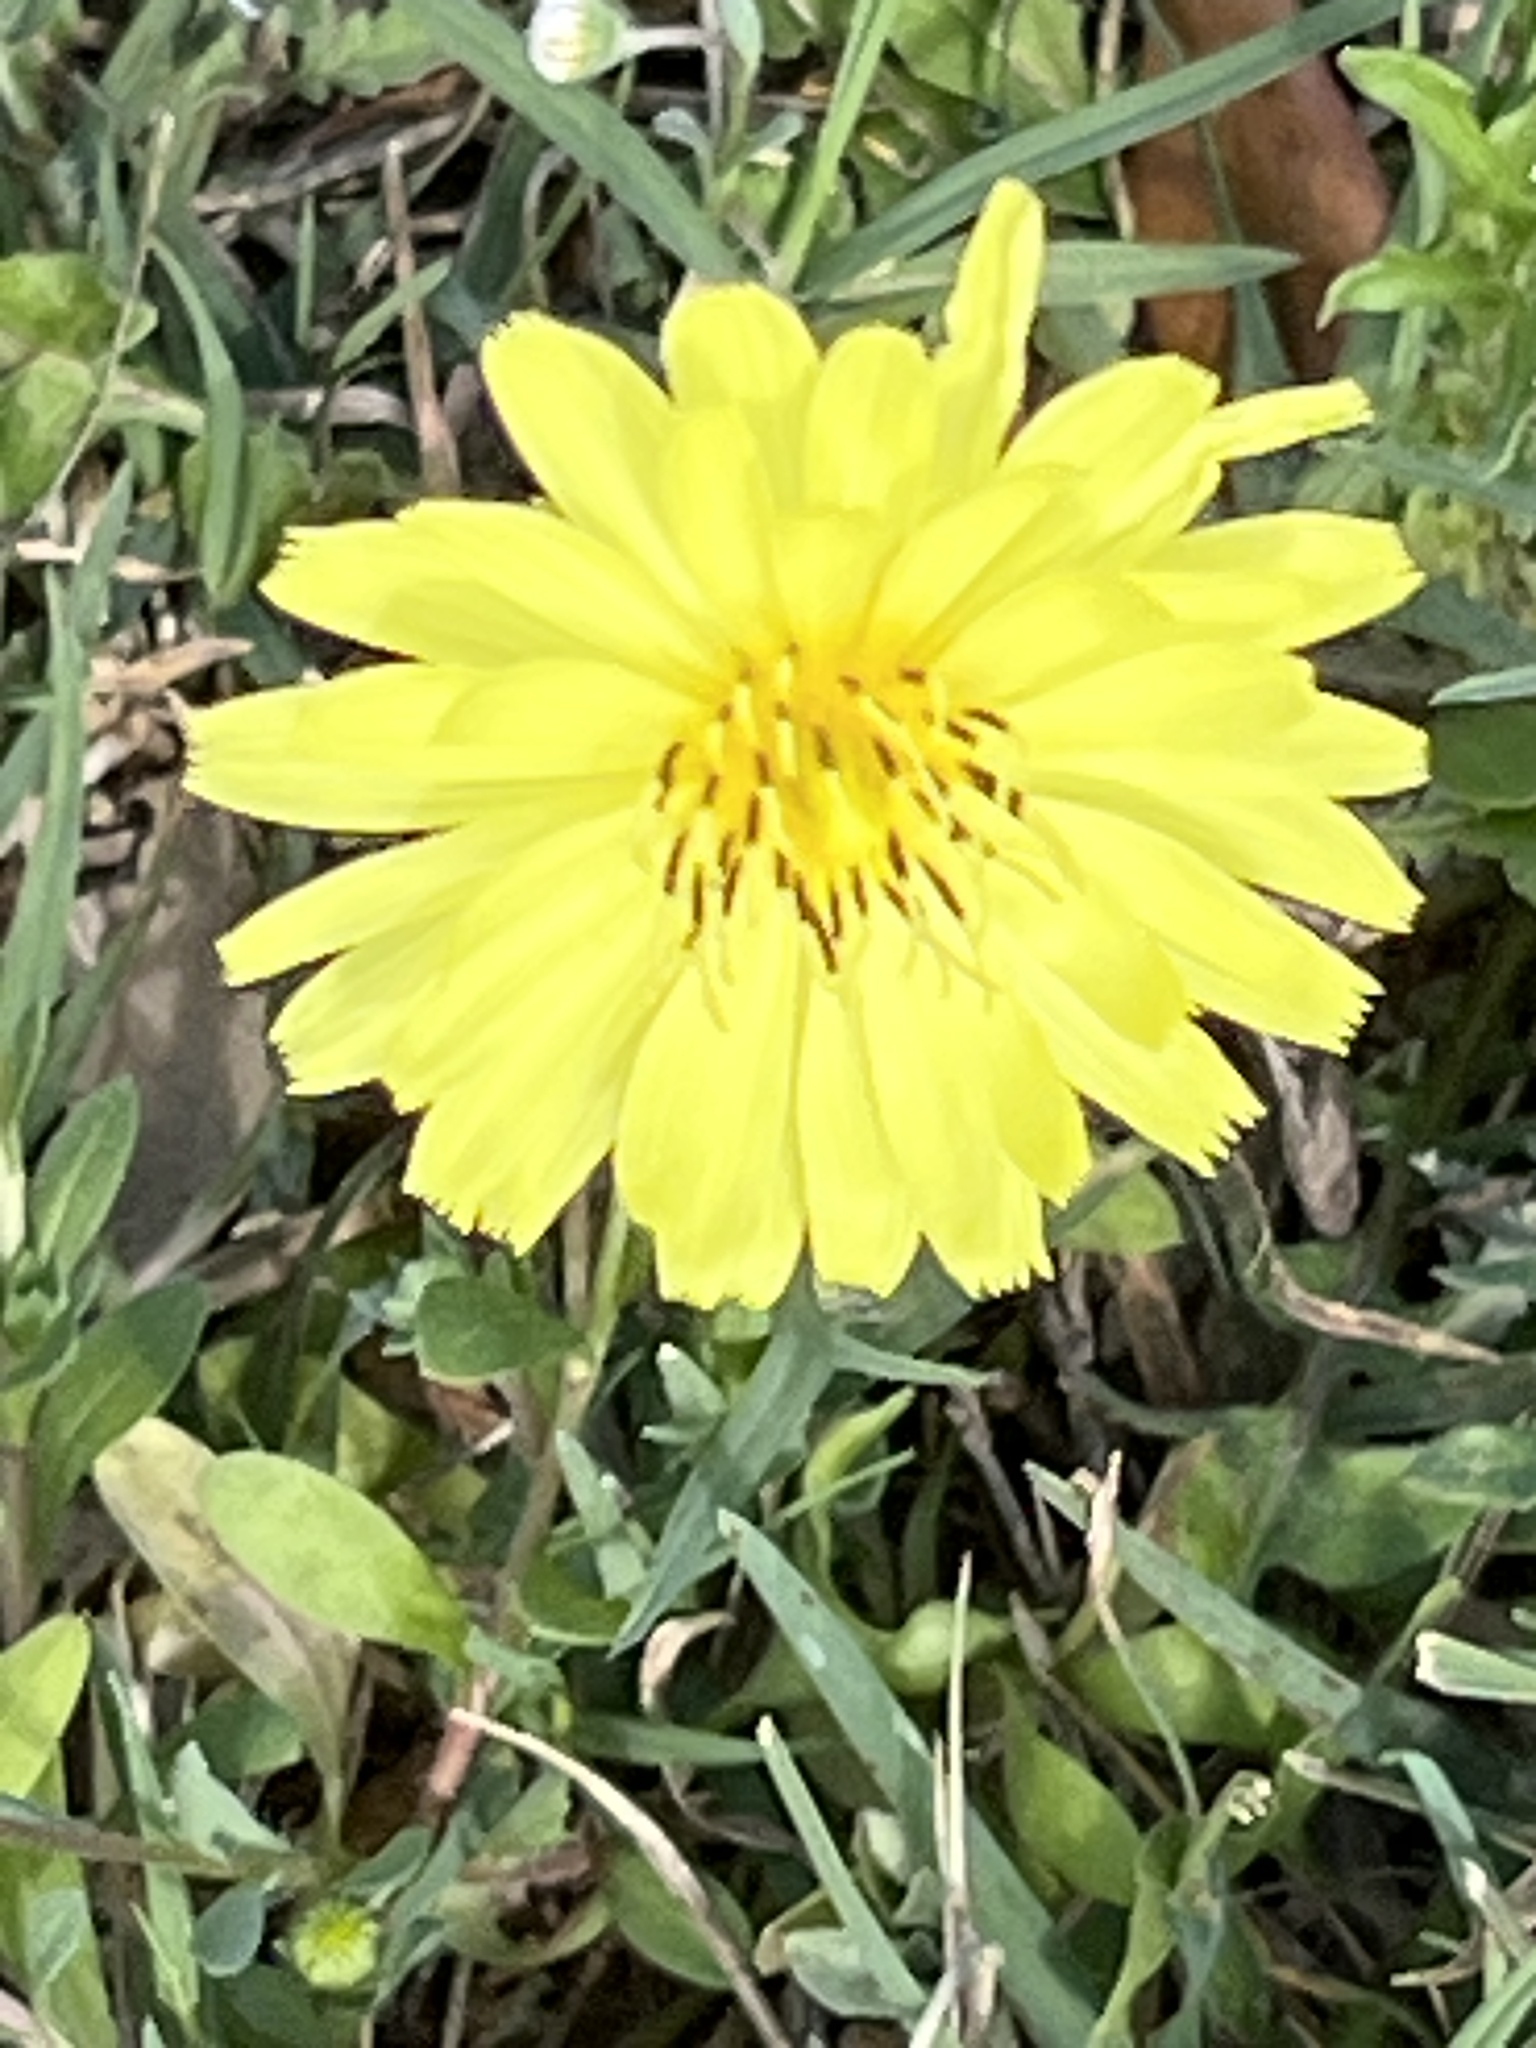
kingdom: Plantae
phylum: Tracheophyta
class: Magnoliopsida
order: Asterales
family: Asteraceae
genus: Pyrrhopappus
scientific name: Pyrrhopappus pauciflorus
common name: Texas false dandelion
